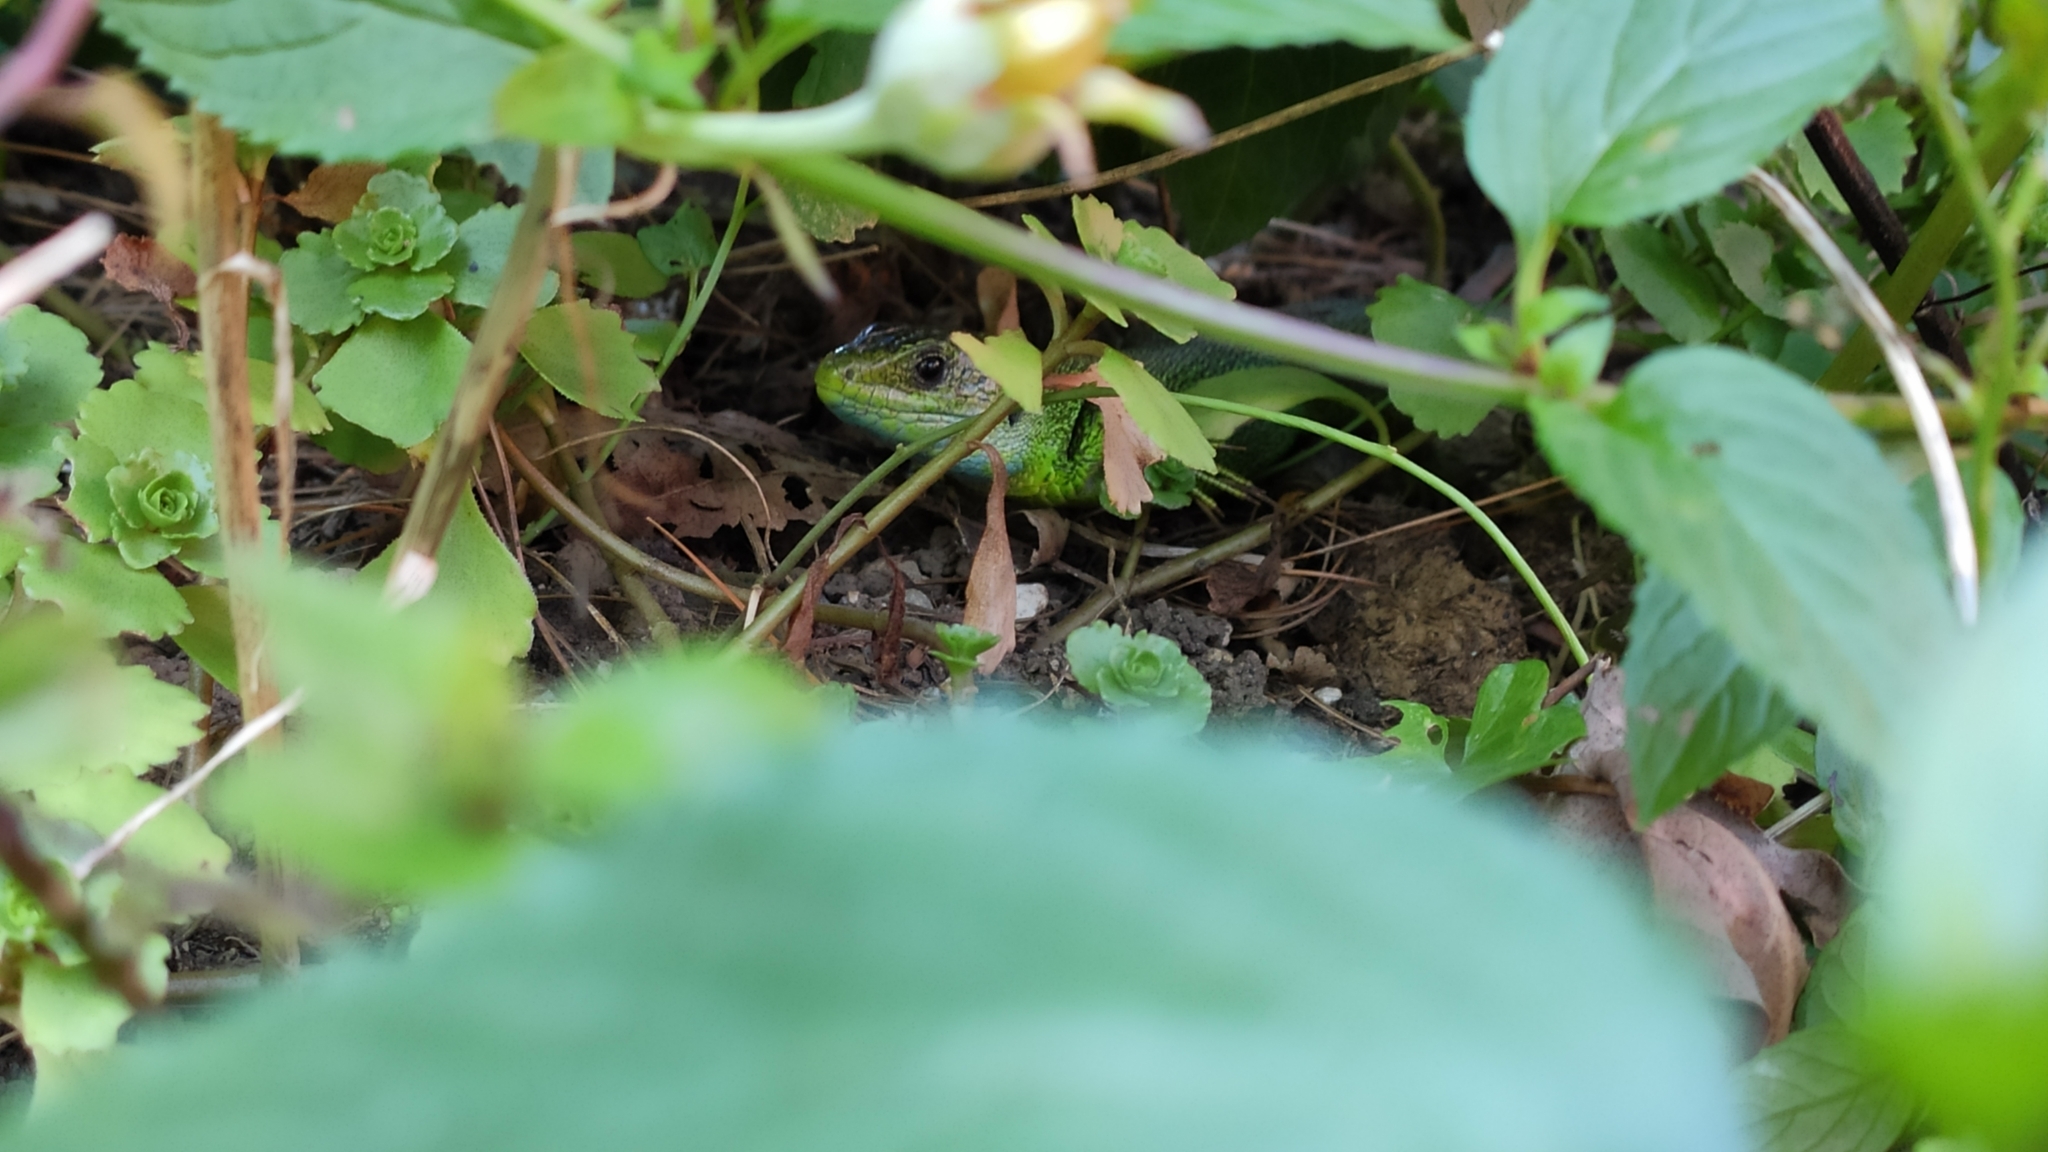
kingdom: Animalia
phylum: Chordata
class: Squamata
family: Lacertidae
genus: Lacerta
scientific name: Lacerta viridis
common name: European green lizard
